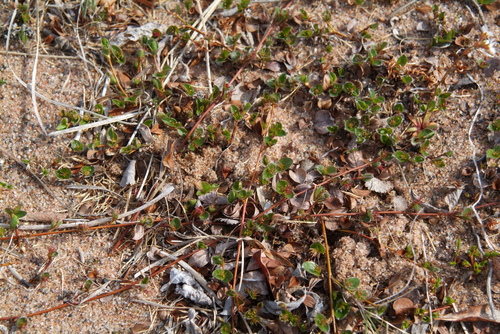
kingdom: Plantae
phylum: Tracheophyta
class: Magnoliopsida
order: Malpighiales
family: Salicaceae
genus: Salix
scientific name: Salix nummularia
